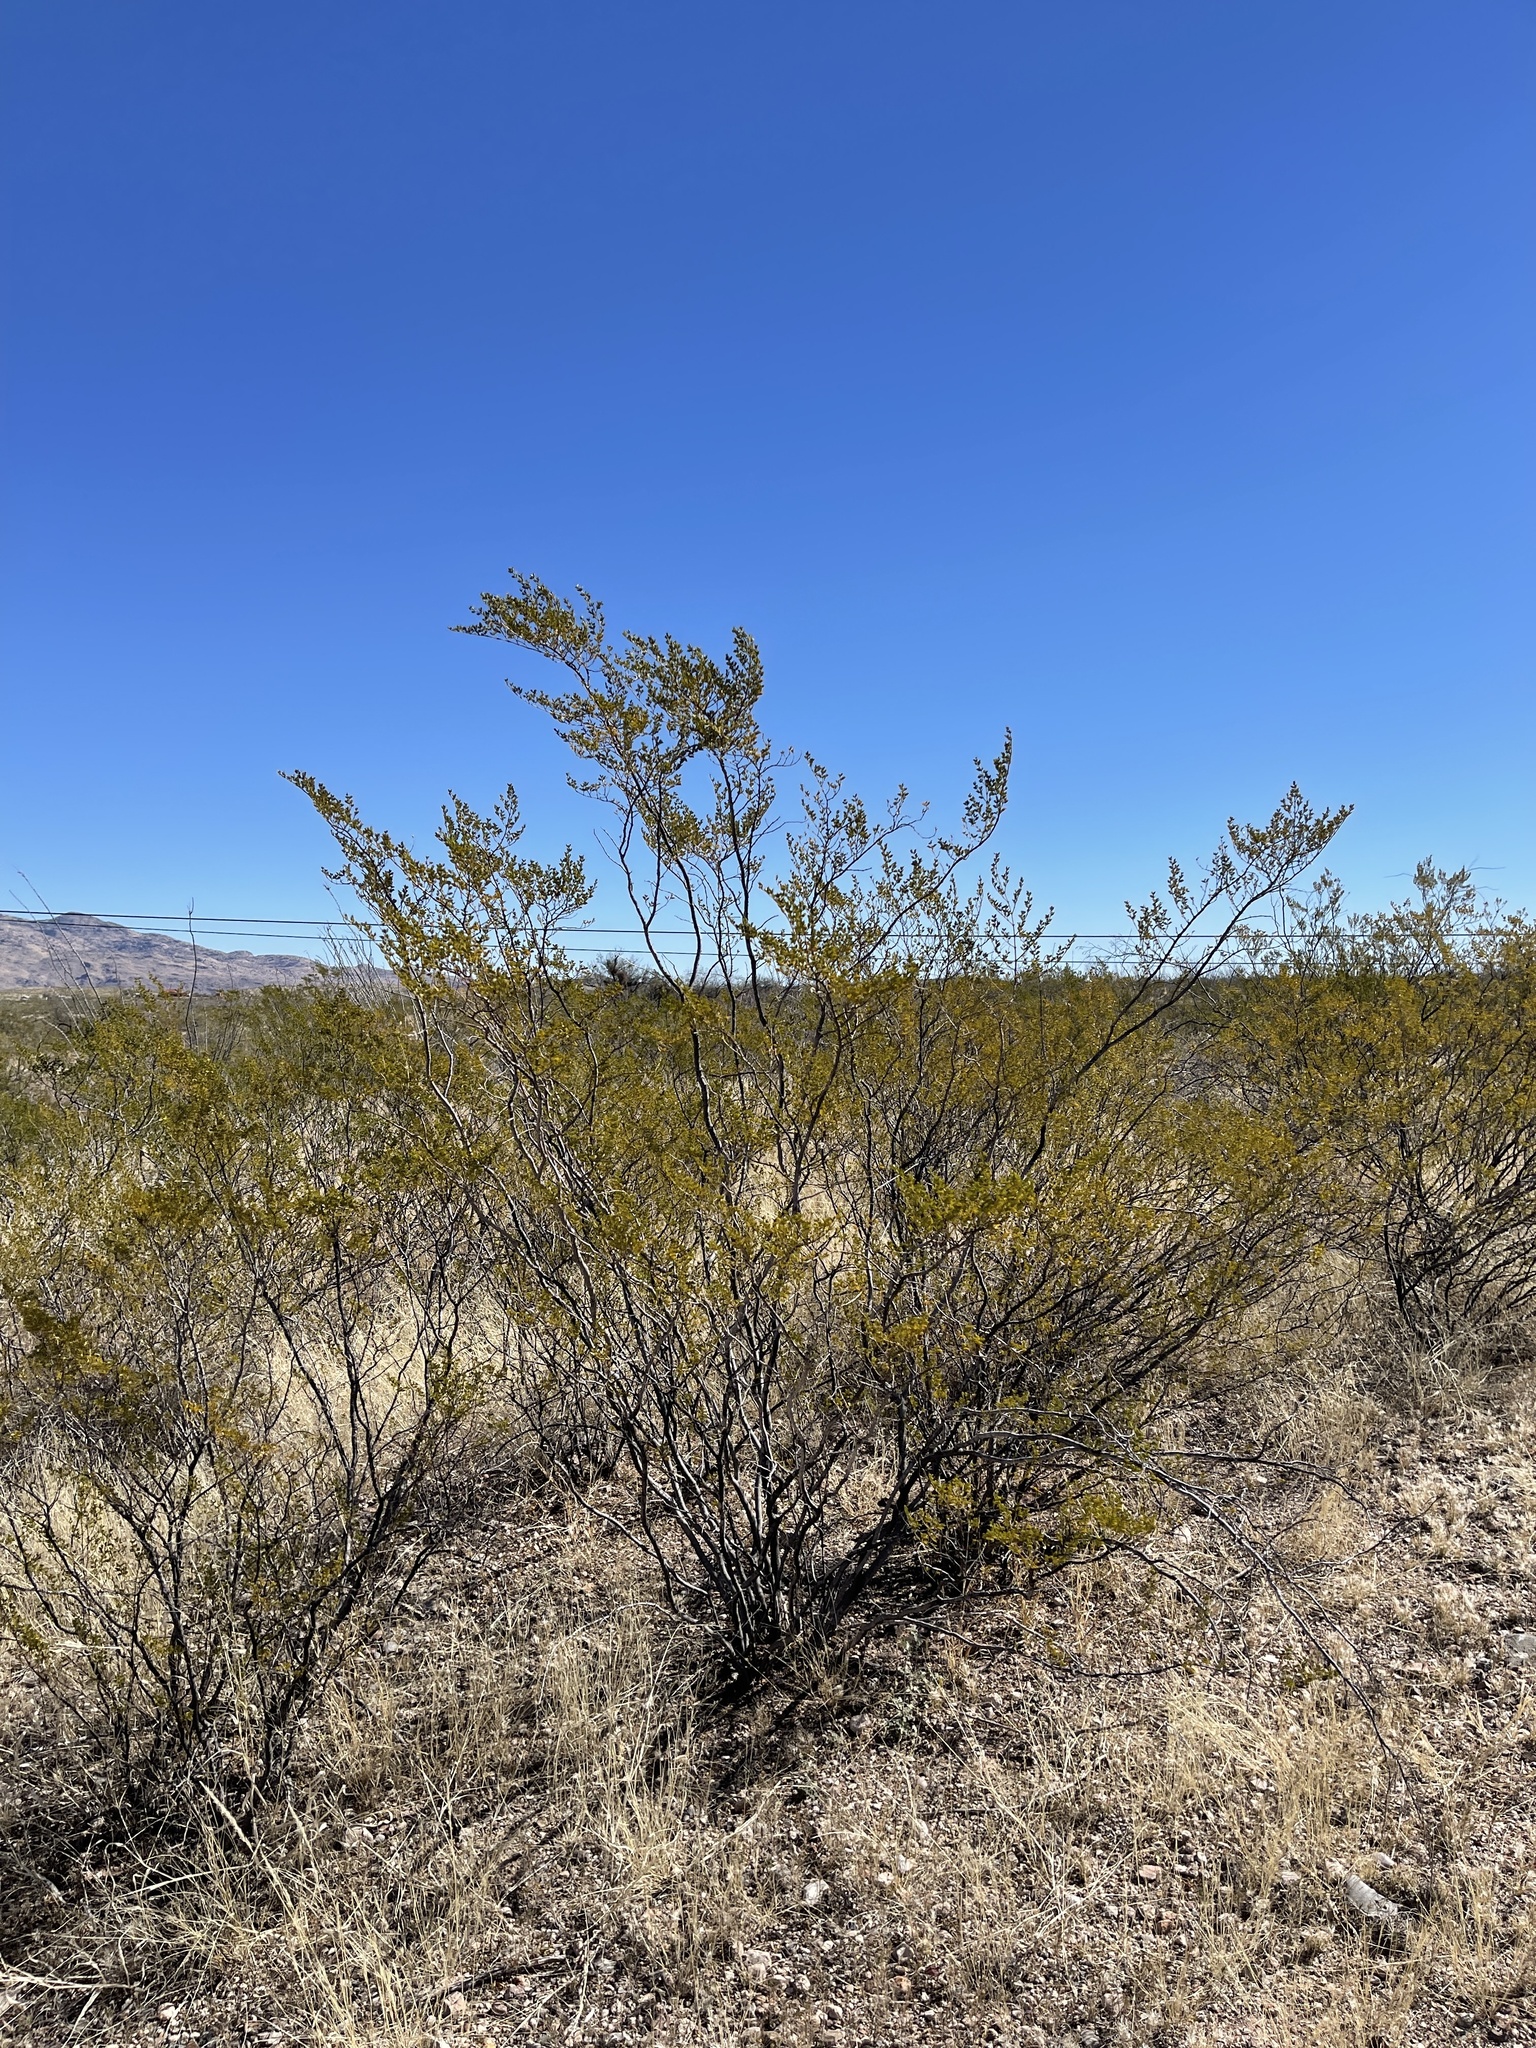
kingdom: Plantae
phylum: Tracheophyta
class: Magnoliopsida
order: Zygophyllales
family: Zygophyllaceae
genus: Larrea
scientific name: Larrea tridentata
